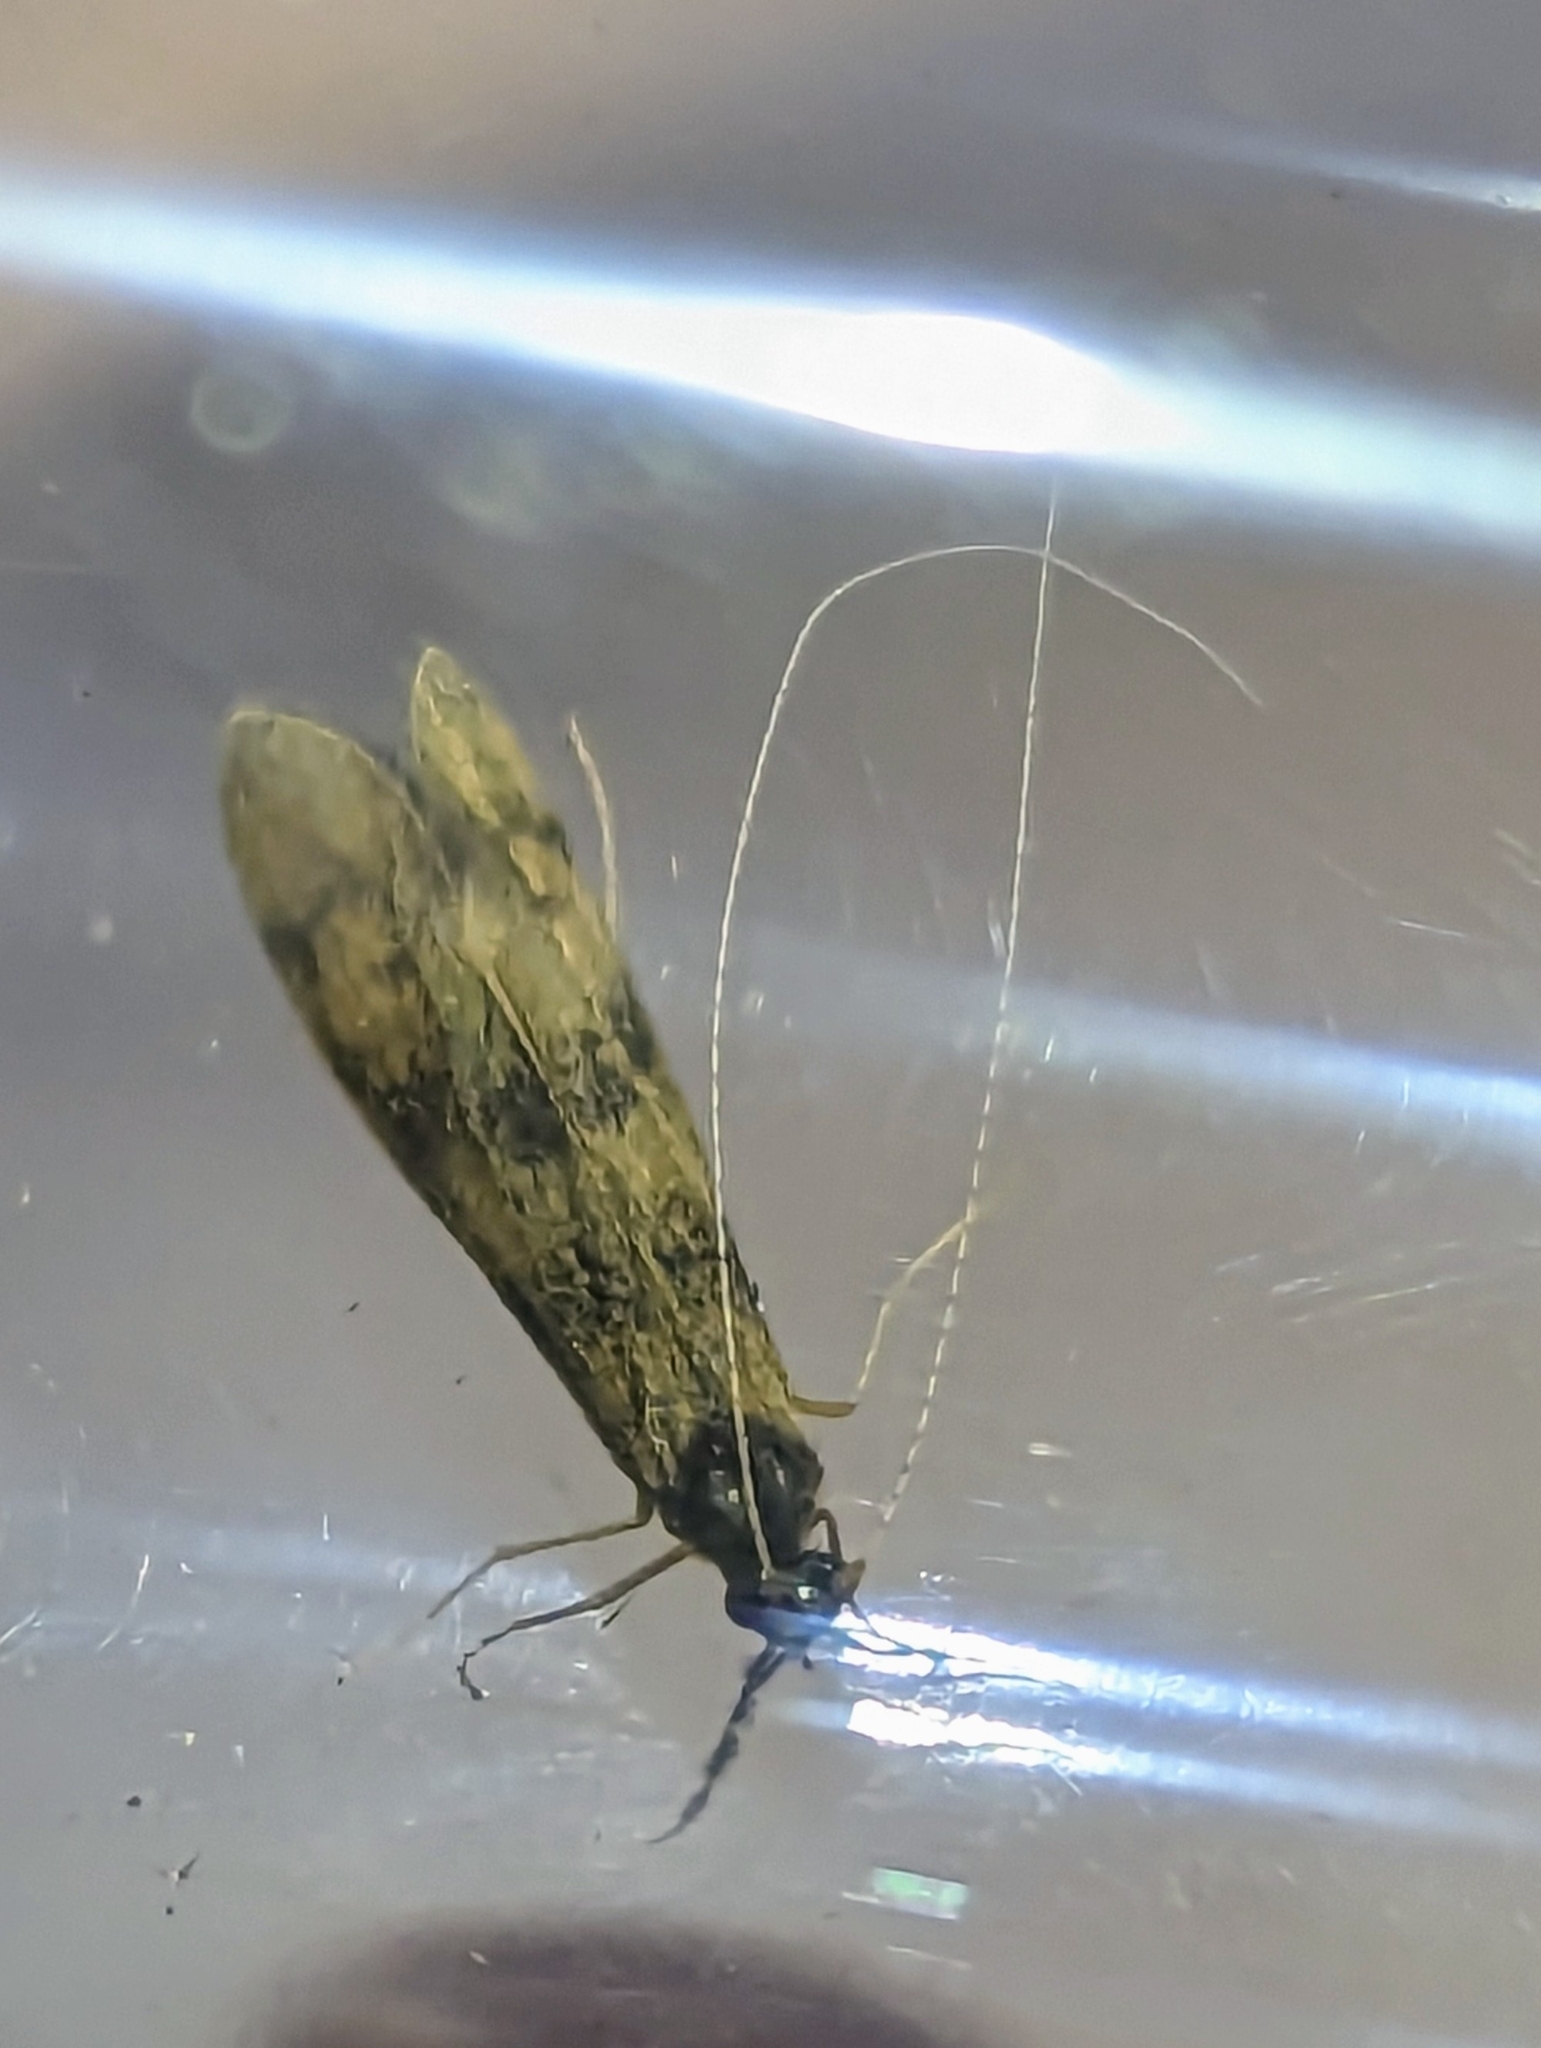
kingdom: Animalia
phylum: Arthropoda
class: Insecta
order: Trichoptera
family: Leptoceridae
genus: Mystacides
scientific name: Mystacides longicornis
